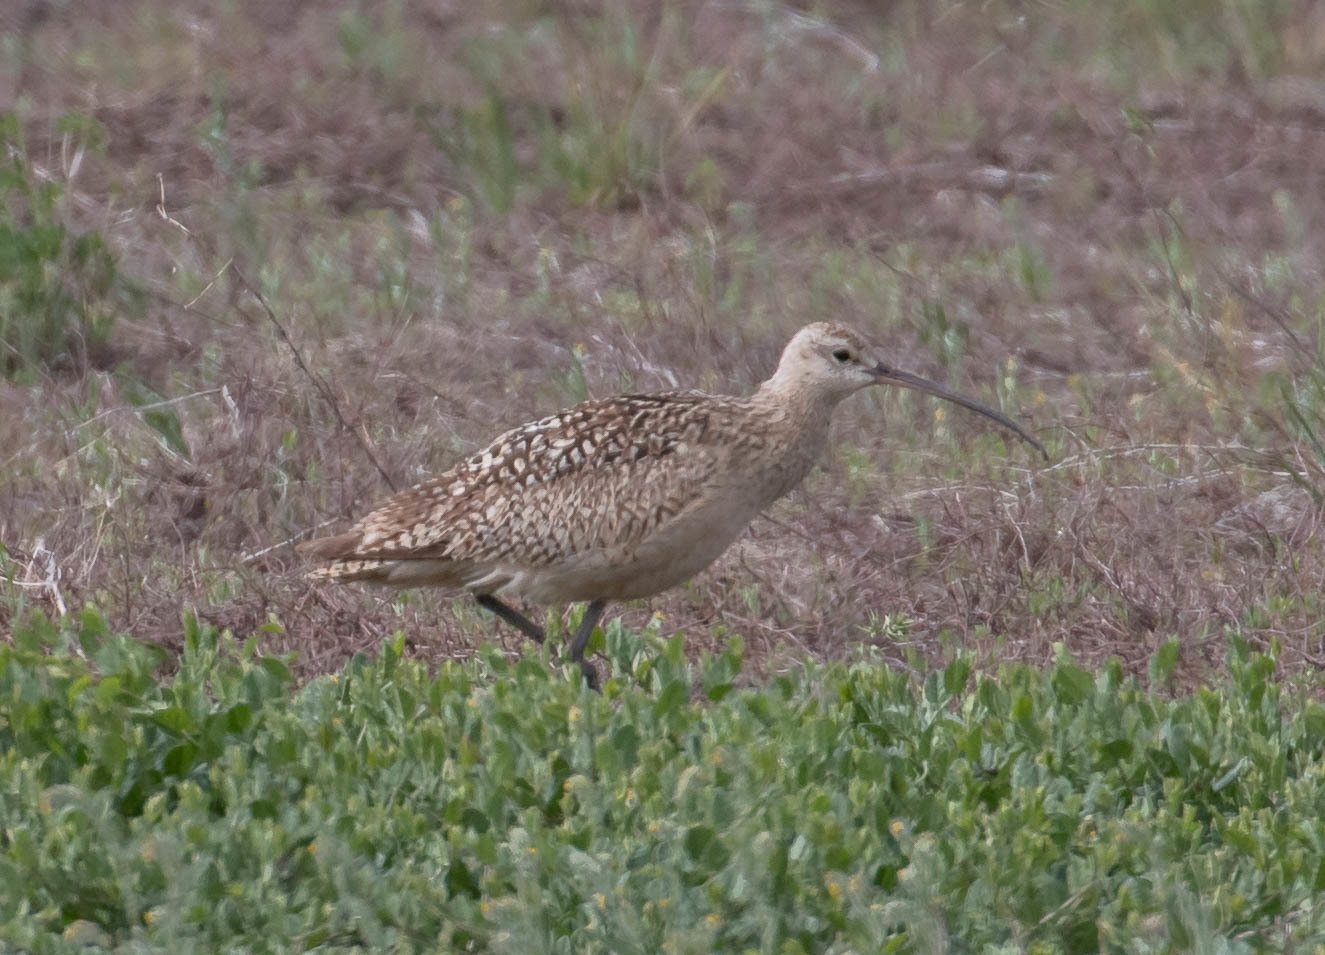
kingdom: Animalia
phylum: Chordata
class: Aves
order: Charadriiformes
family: Scolopacidae
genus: Numenius
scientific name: Numenius americanus
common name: Long-billed curlew
